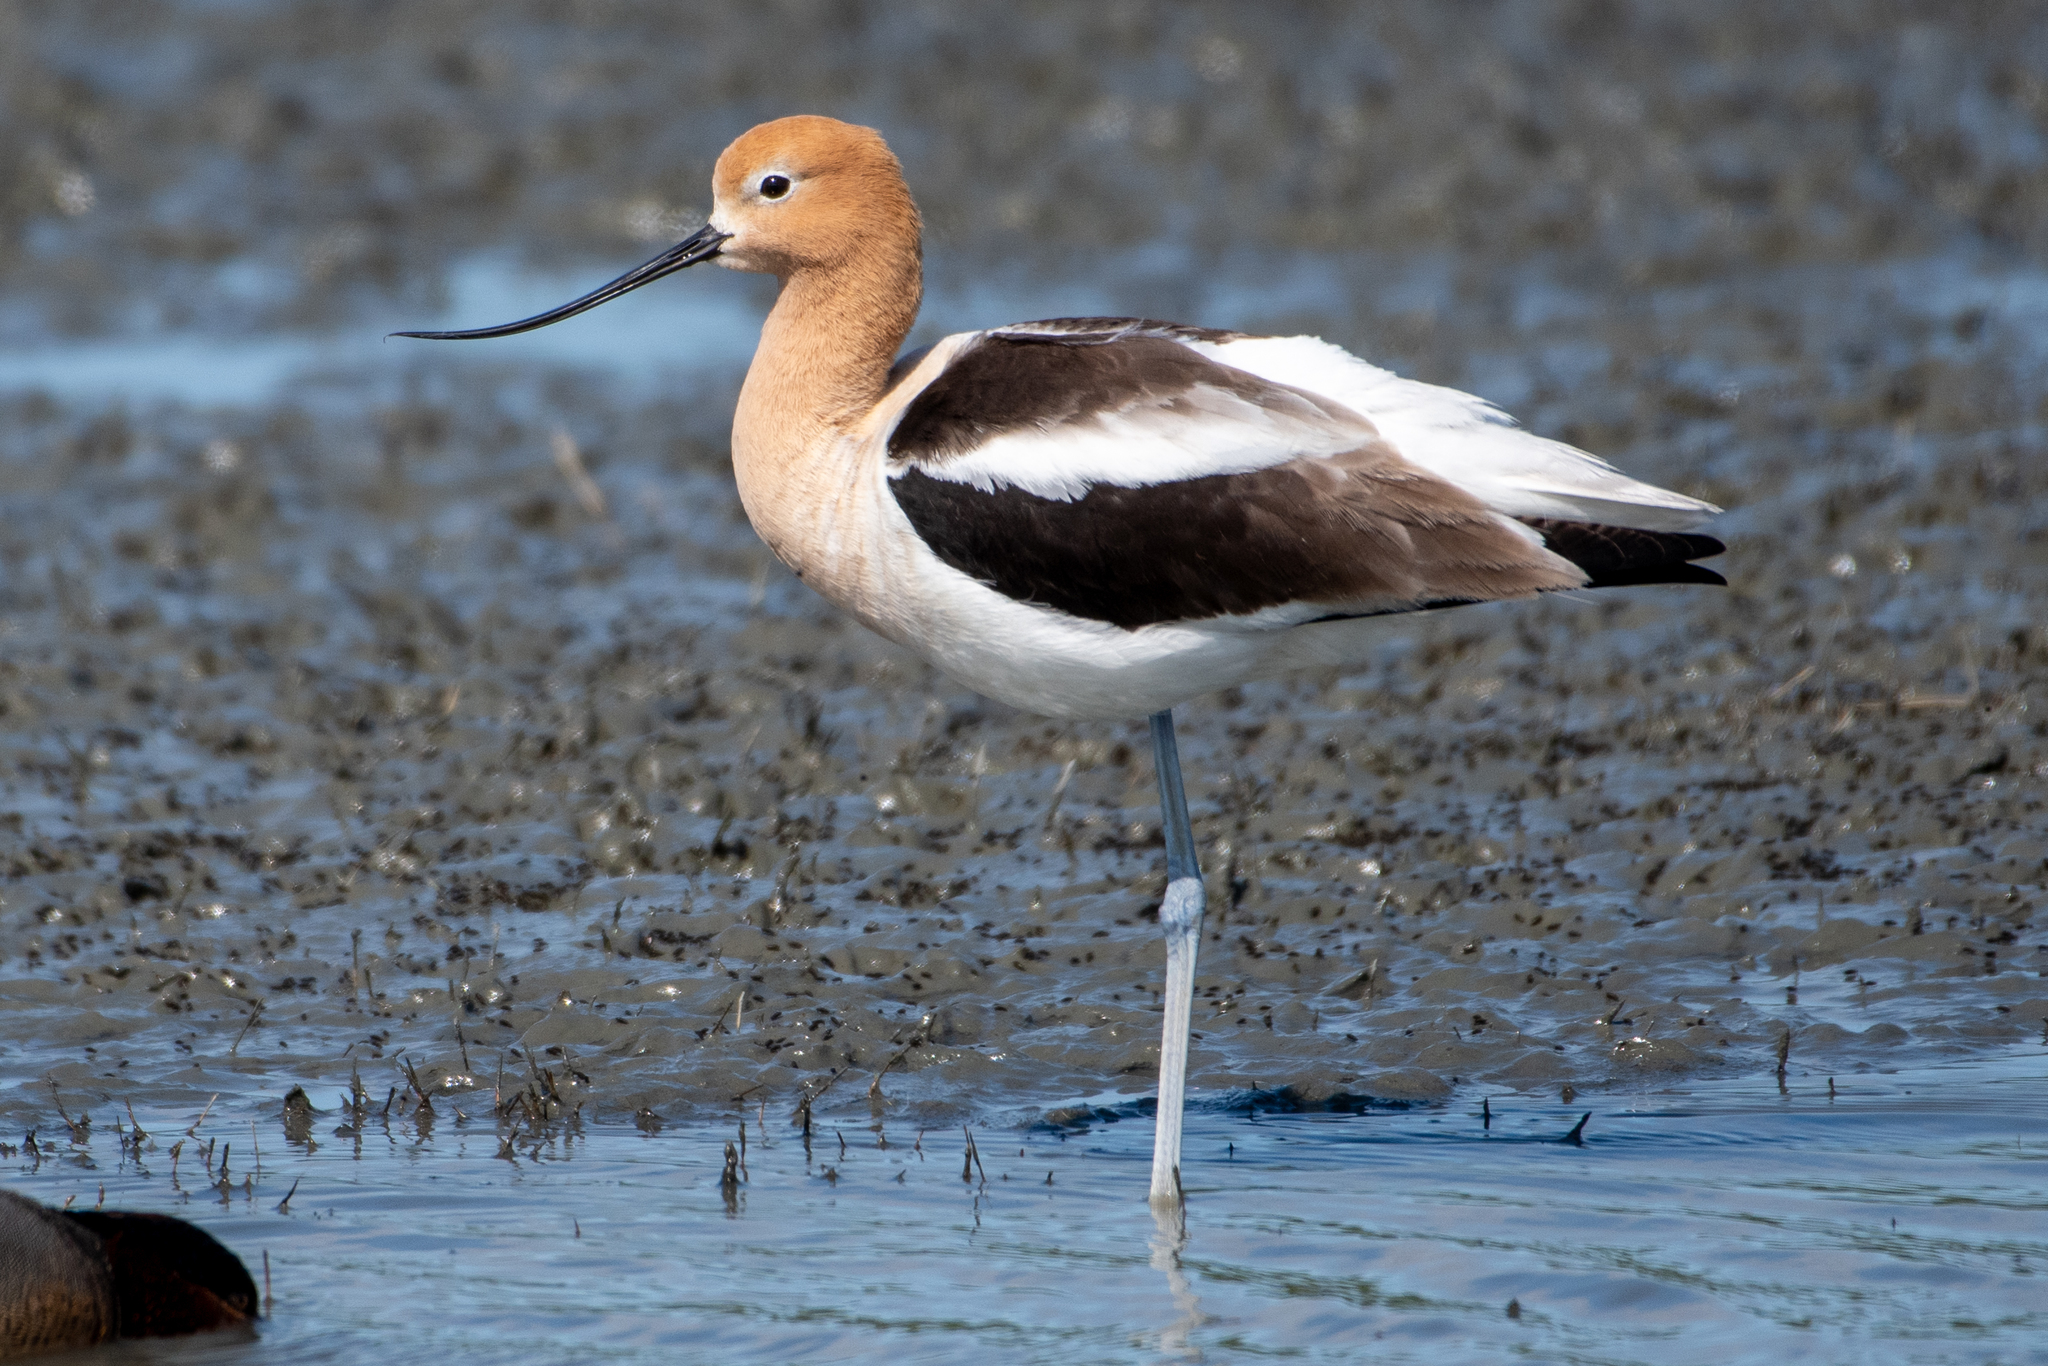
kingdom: Animalia
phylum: Chordata
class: Aves
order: Charadriiformes
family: Recurvirostridae
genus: Recurvirostra
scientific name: Recurvirostra americana
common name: American avocet
